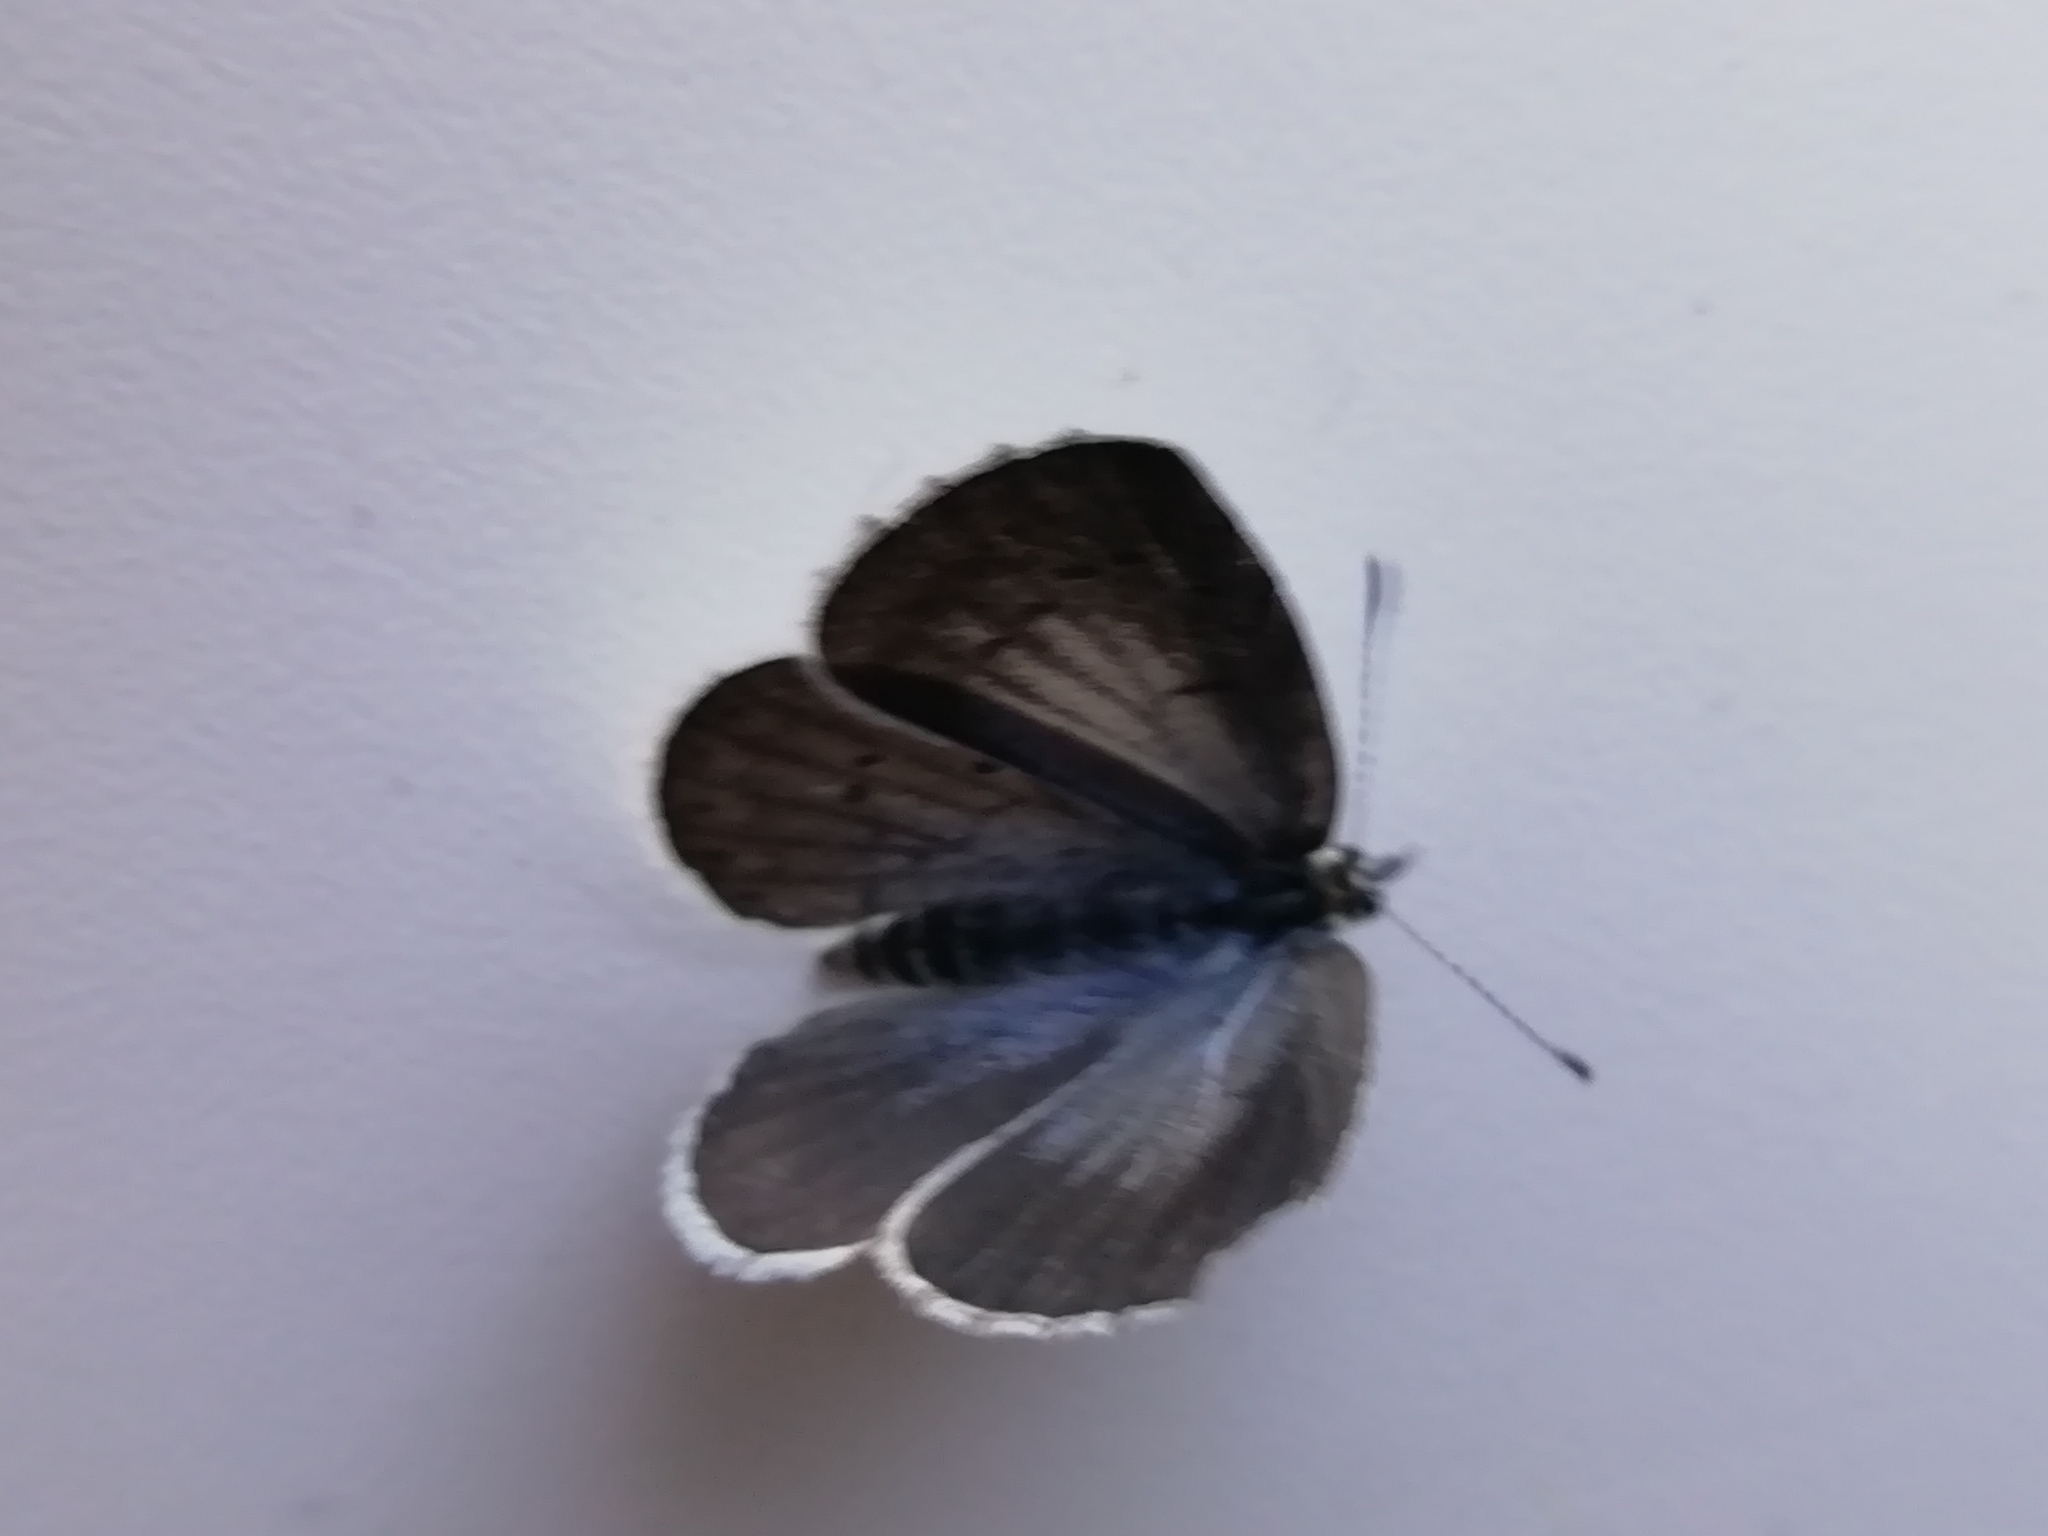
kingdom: Animalia
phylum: Arthropoda
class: Insecta
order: Lepidoptera
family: Lycaenidae
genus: Celastrina
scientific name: Celastrina argiolus
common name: Holly blue
